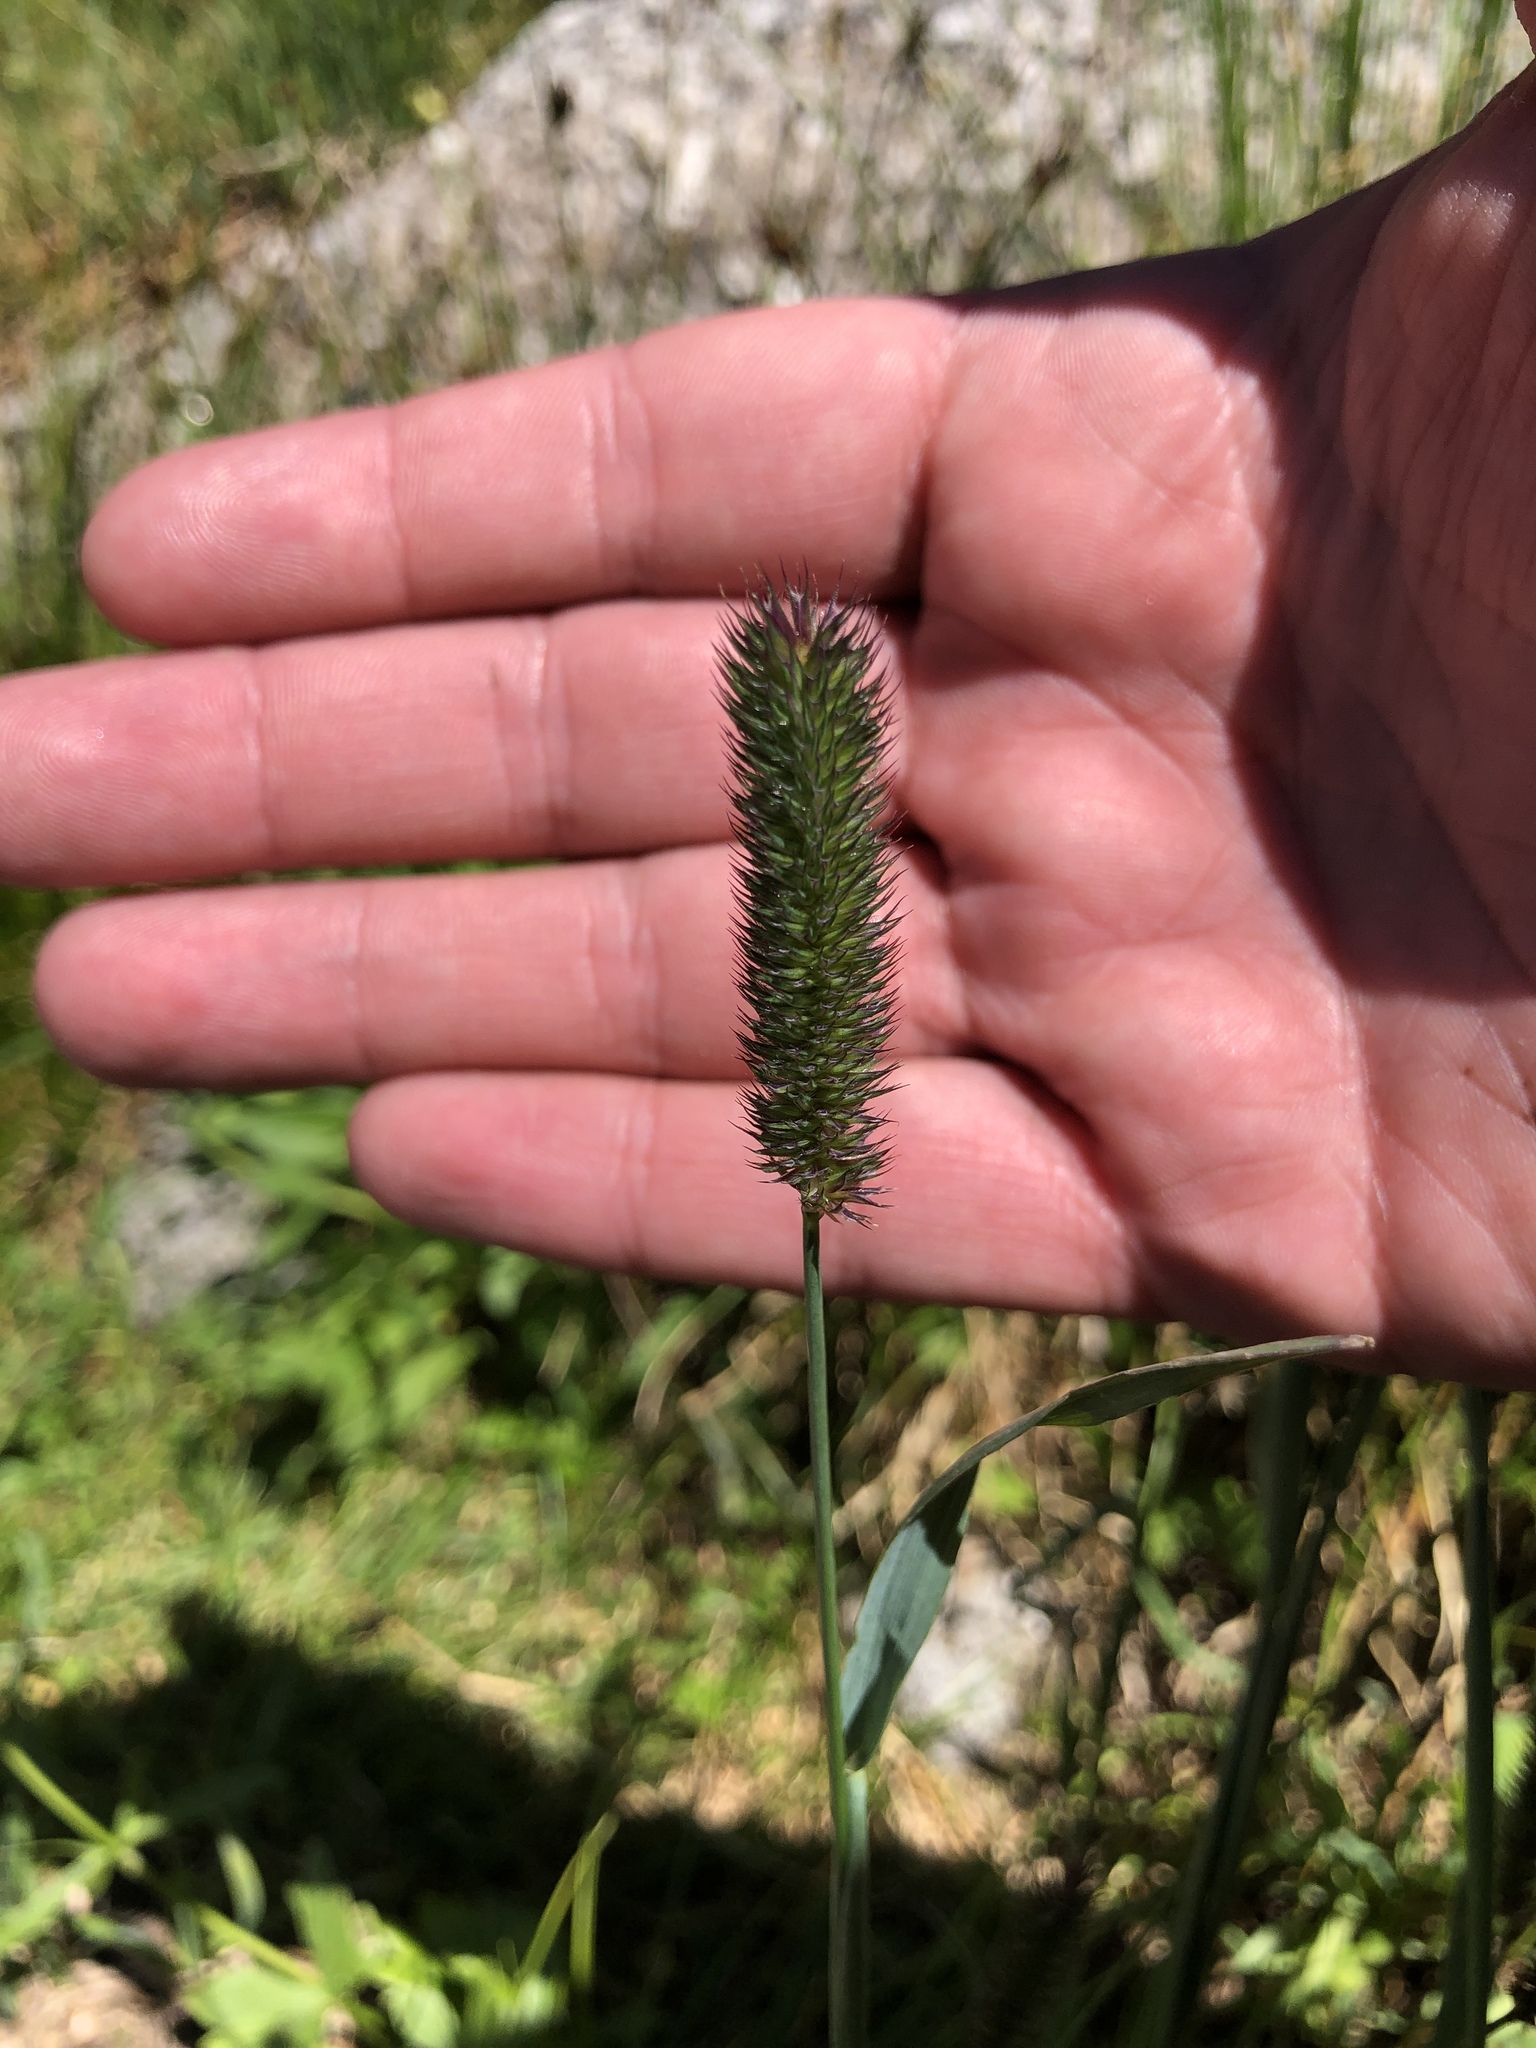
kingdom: Plantae
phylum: Tracheophyta
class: Liliopsida
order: Poales
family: Poaceae
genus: Phleum
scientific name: Phleum pratense
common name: Timothy grass
